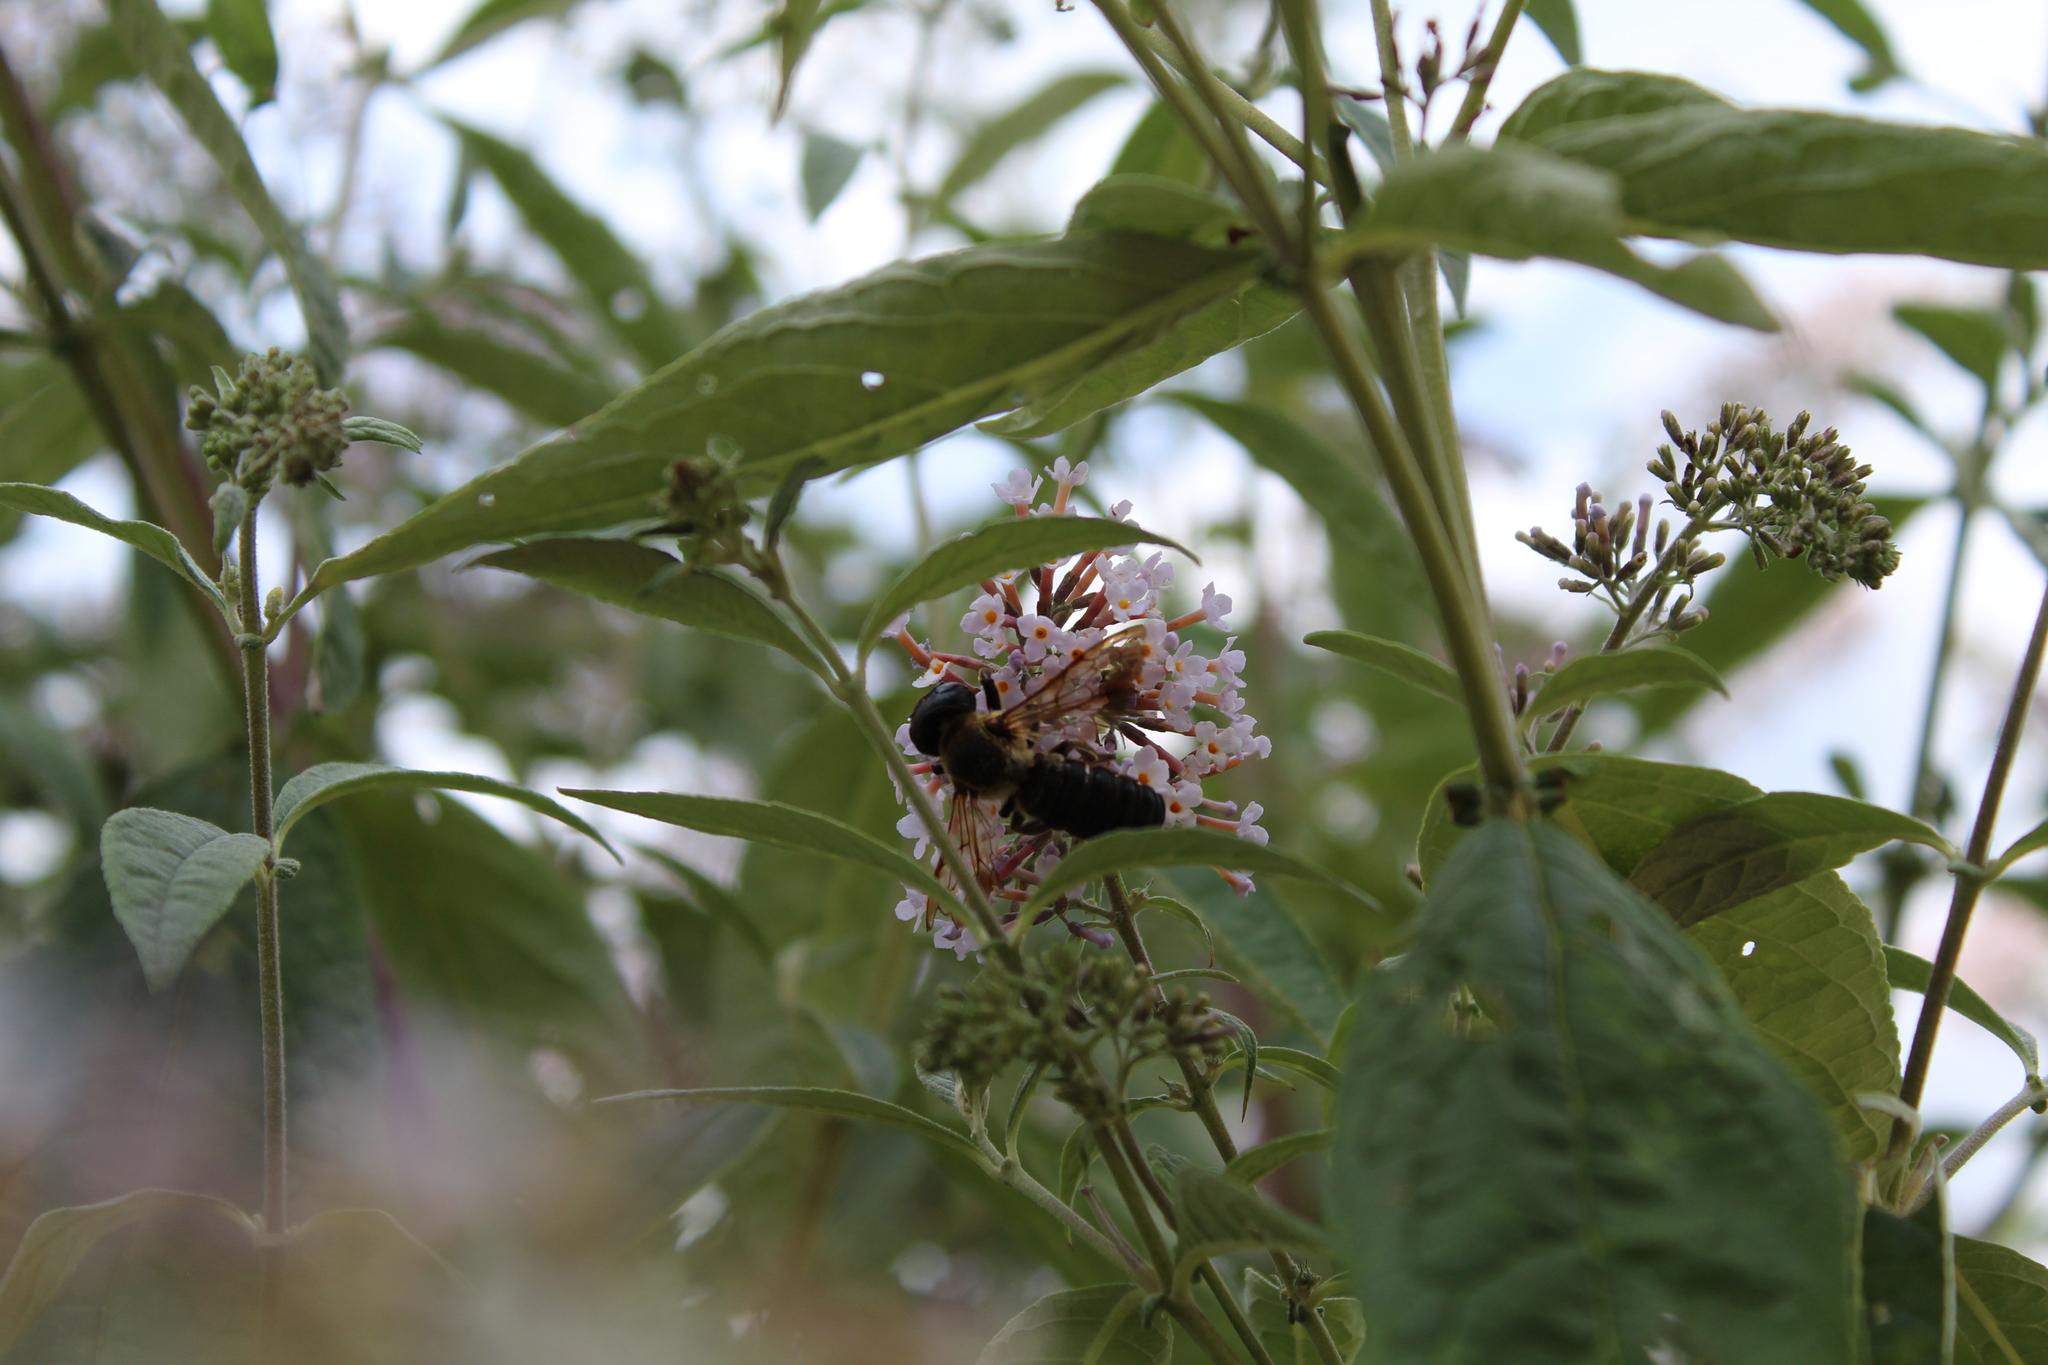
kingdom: Animalia
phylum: Arthropoda
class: Insecta
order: Hymenoptera
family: Megachilidae
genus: Megachile
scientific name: Megachile sculpturalis
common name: Sculptured resin bee
